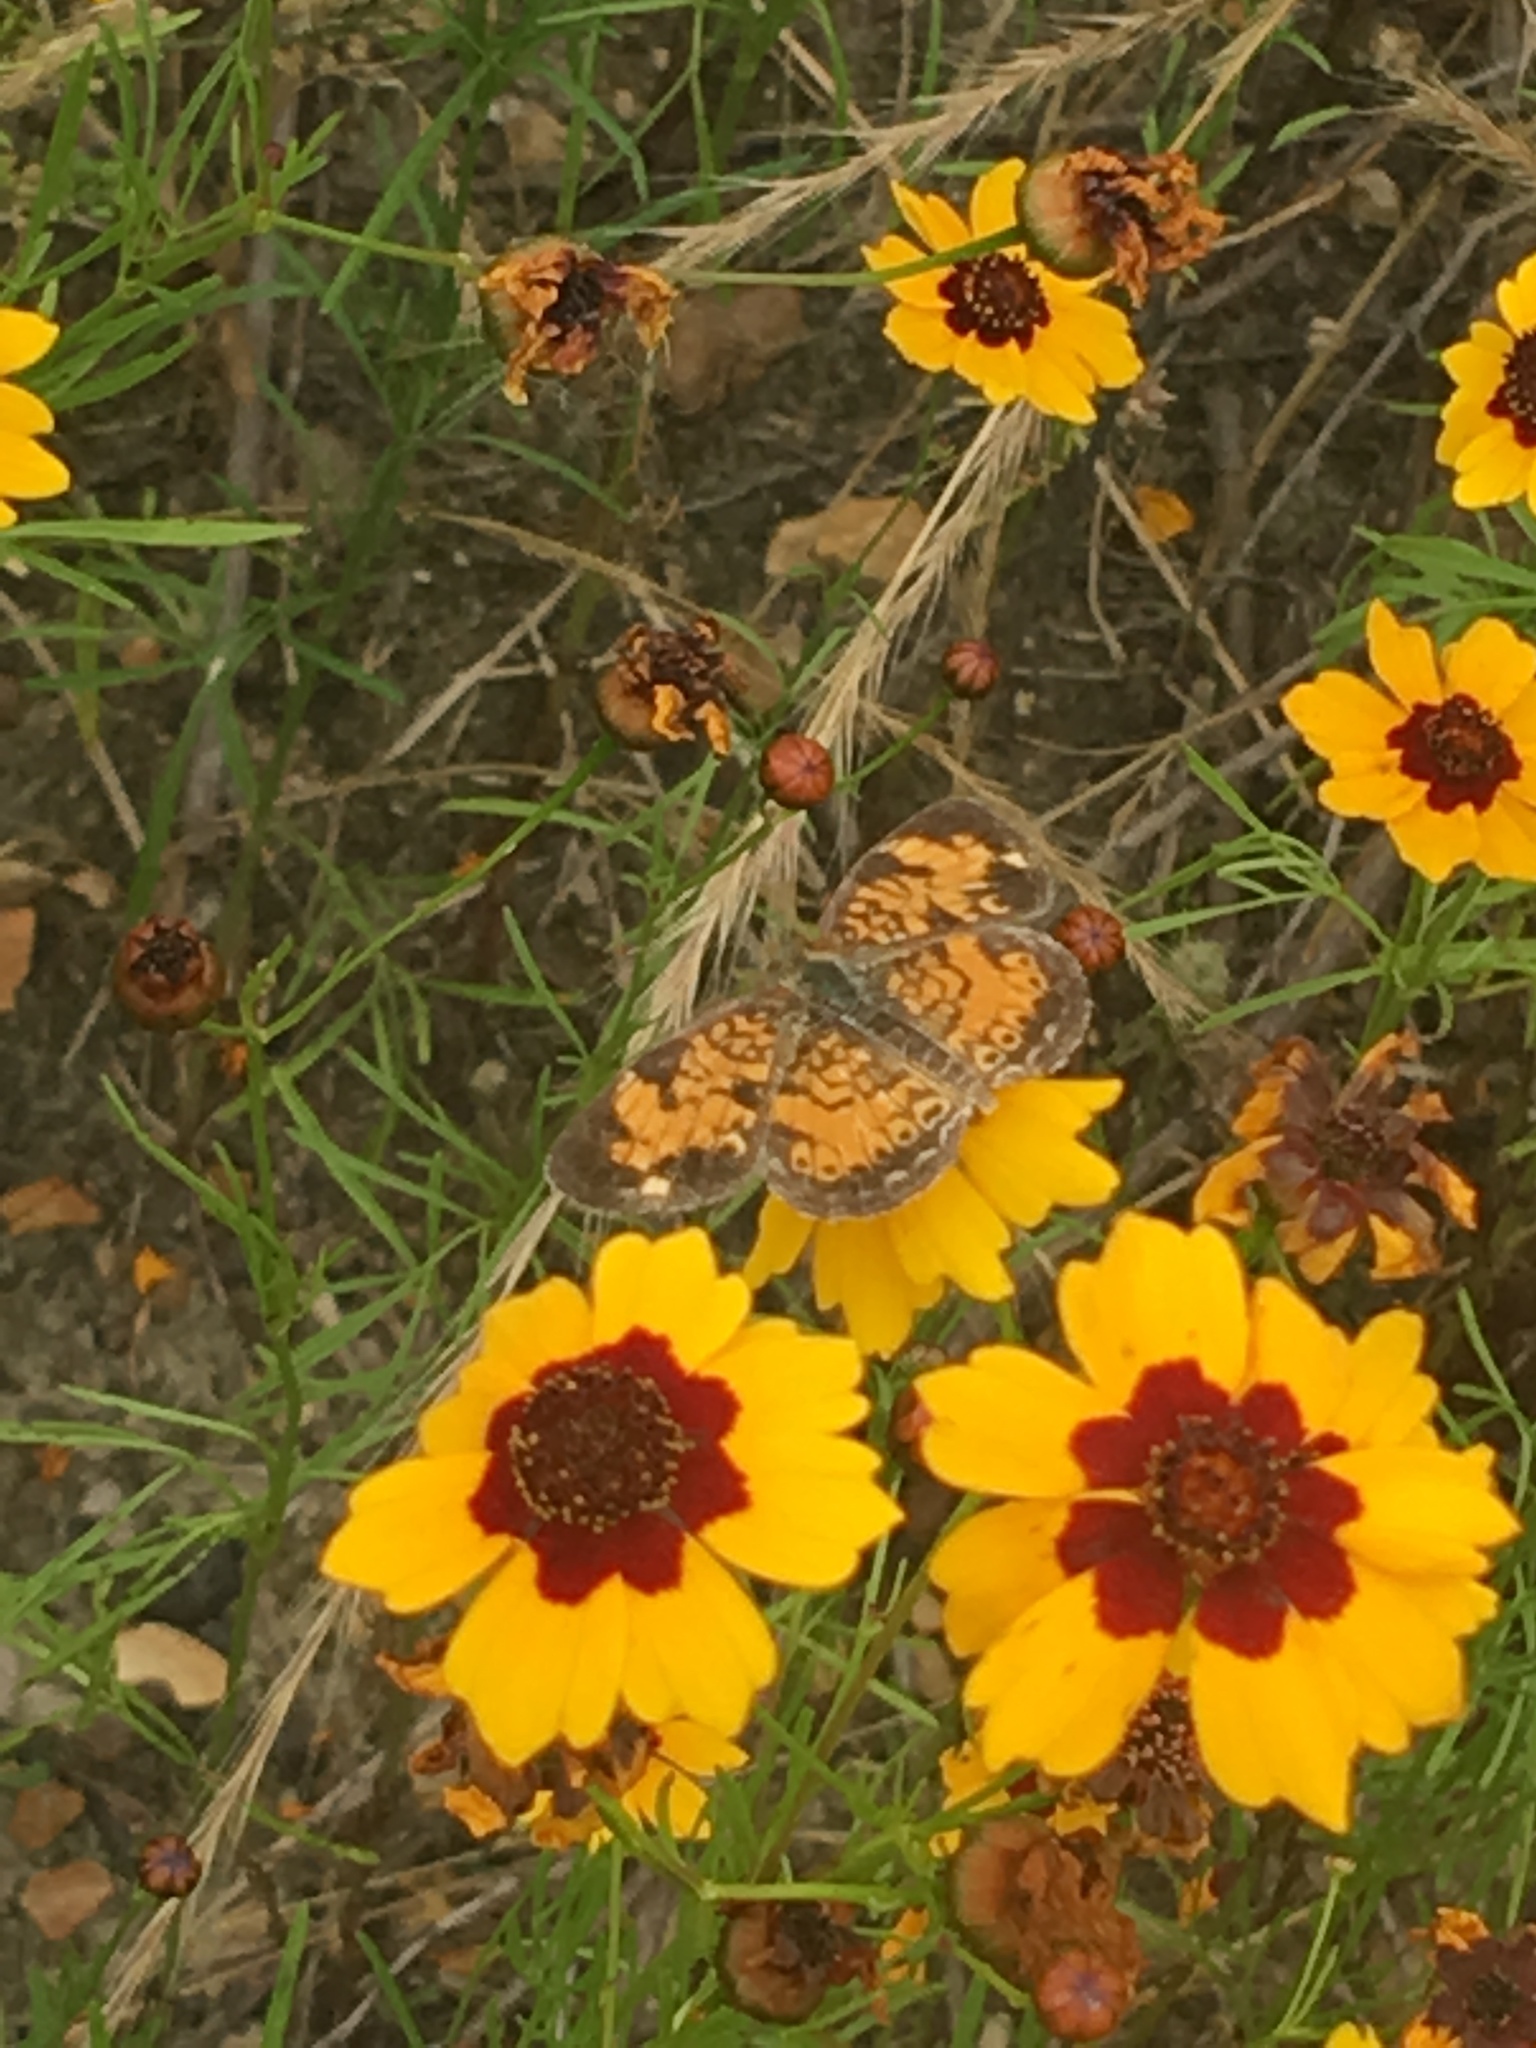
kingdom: Animalia
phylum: Arthropoda
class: Insecta
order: Lepidoptera
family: Nymphalidae
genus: Phyciodes
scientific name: Phyciodes tharos
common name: Pearl crescent
